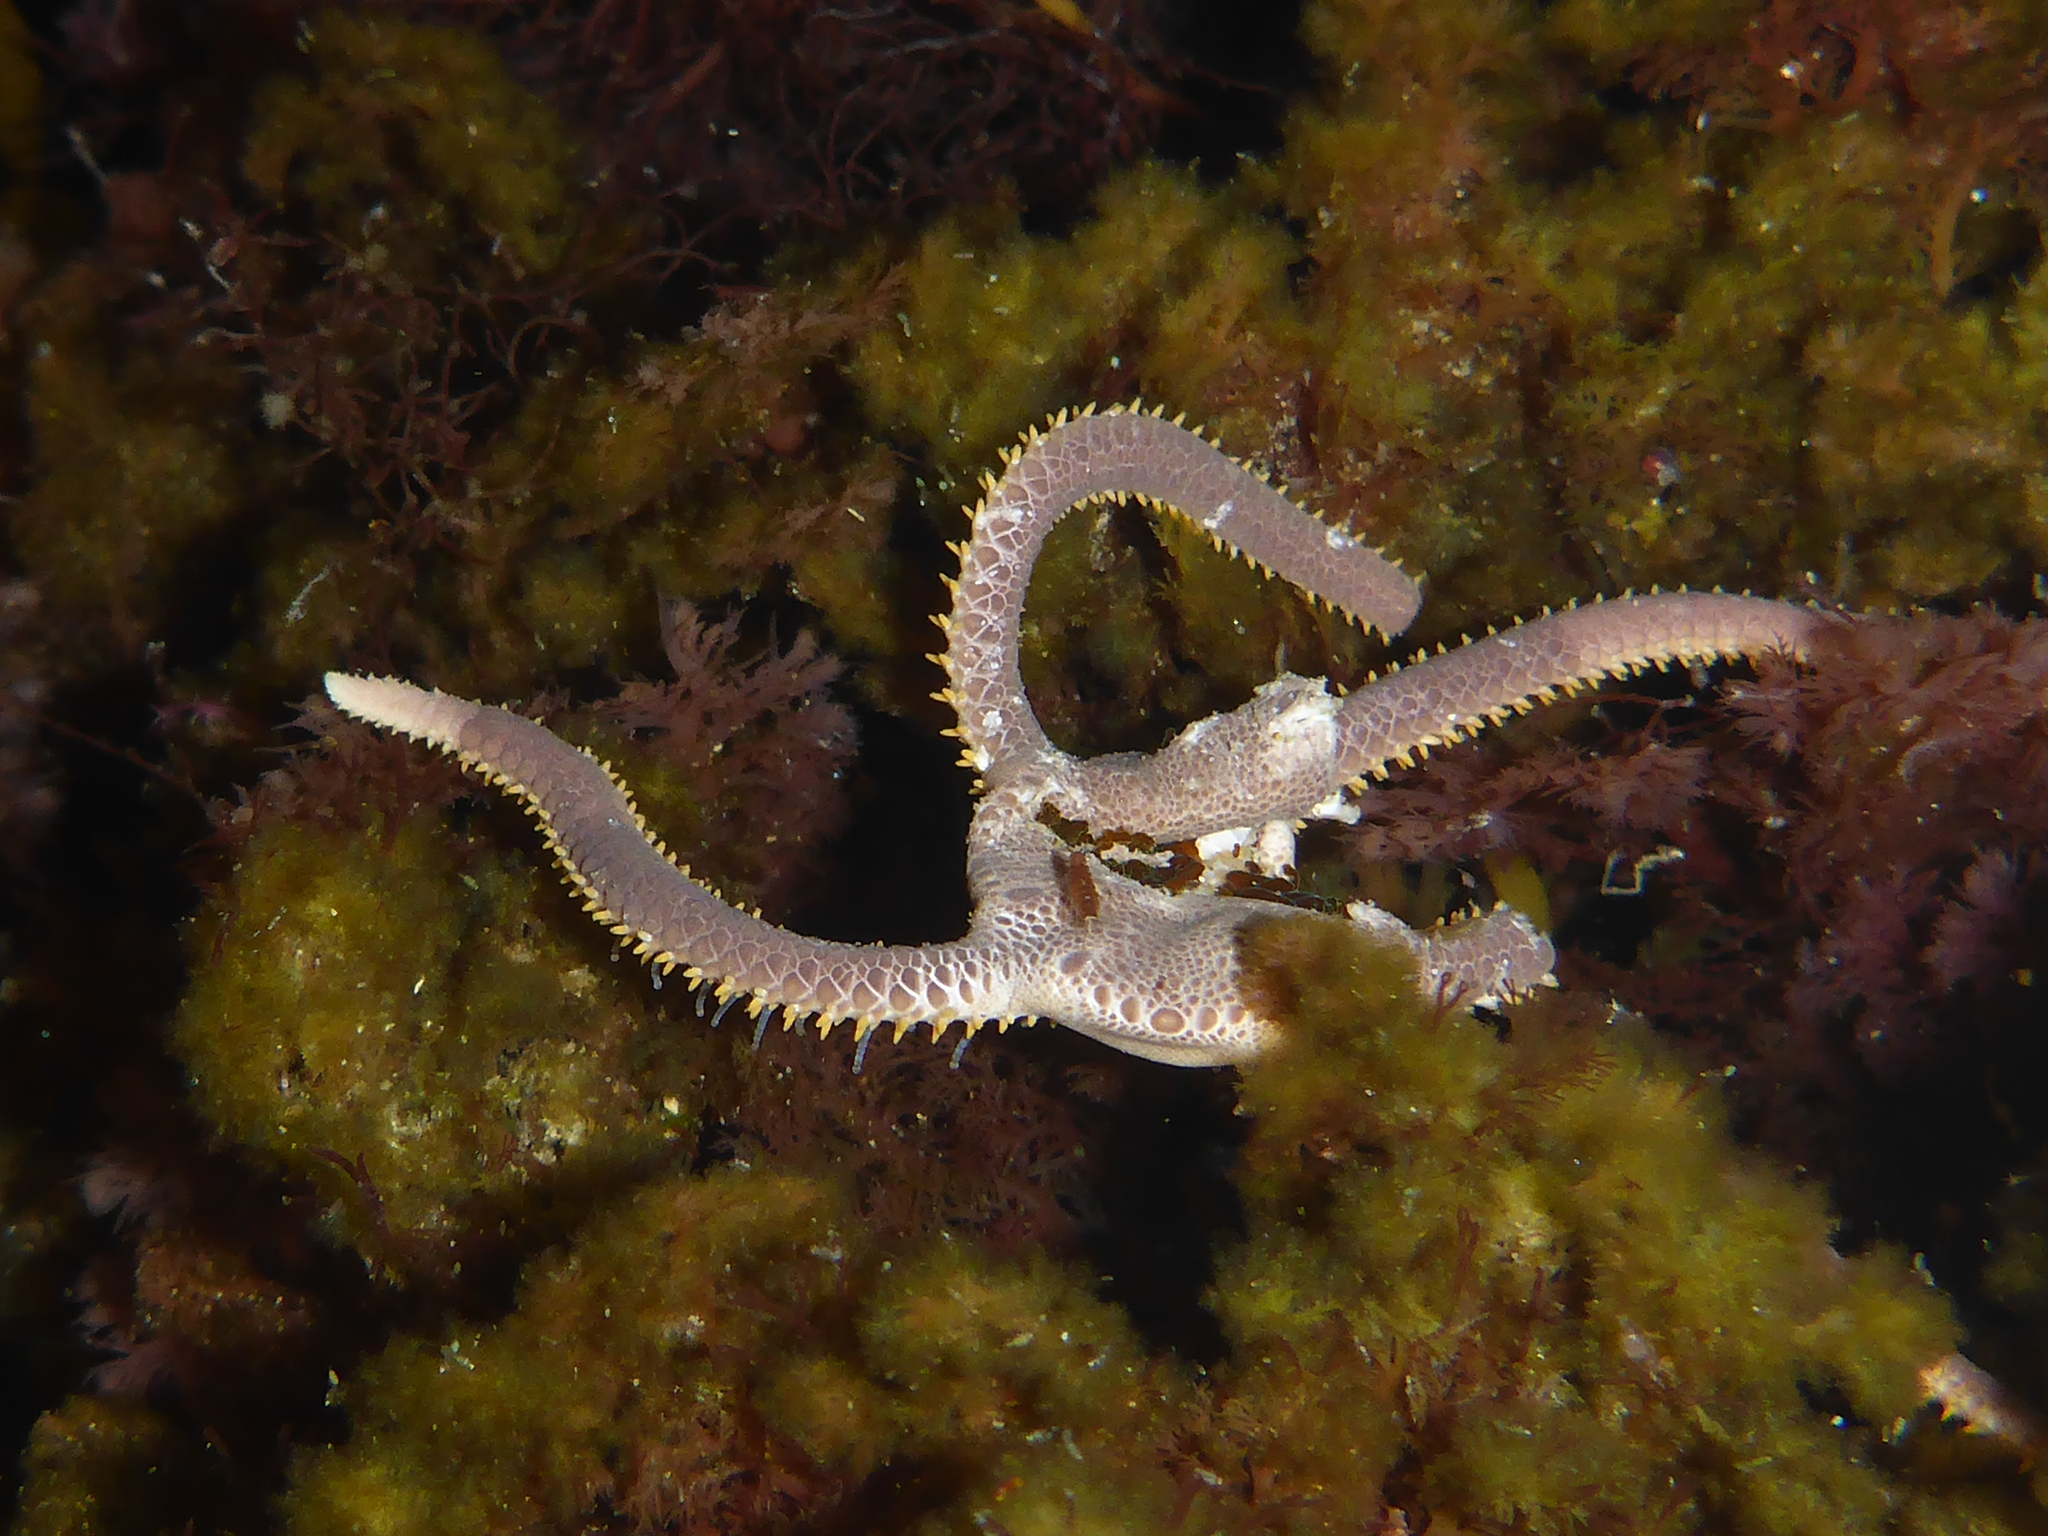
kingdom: Animalia
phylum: Echinodermata
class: Ophiuroidea
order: Amphilepidida
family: Hemieuryalidae
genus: Ophioplocus
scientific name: Ophioplocus esmarki
